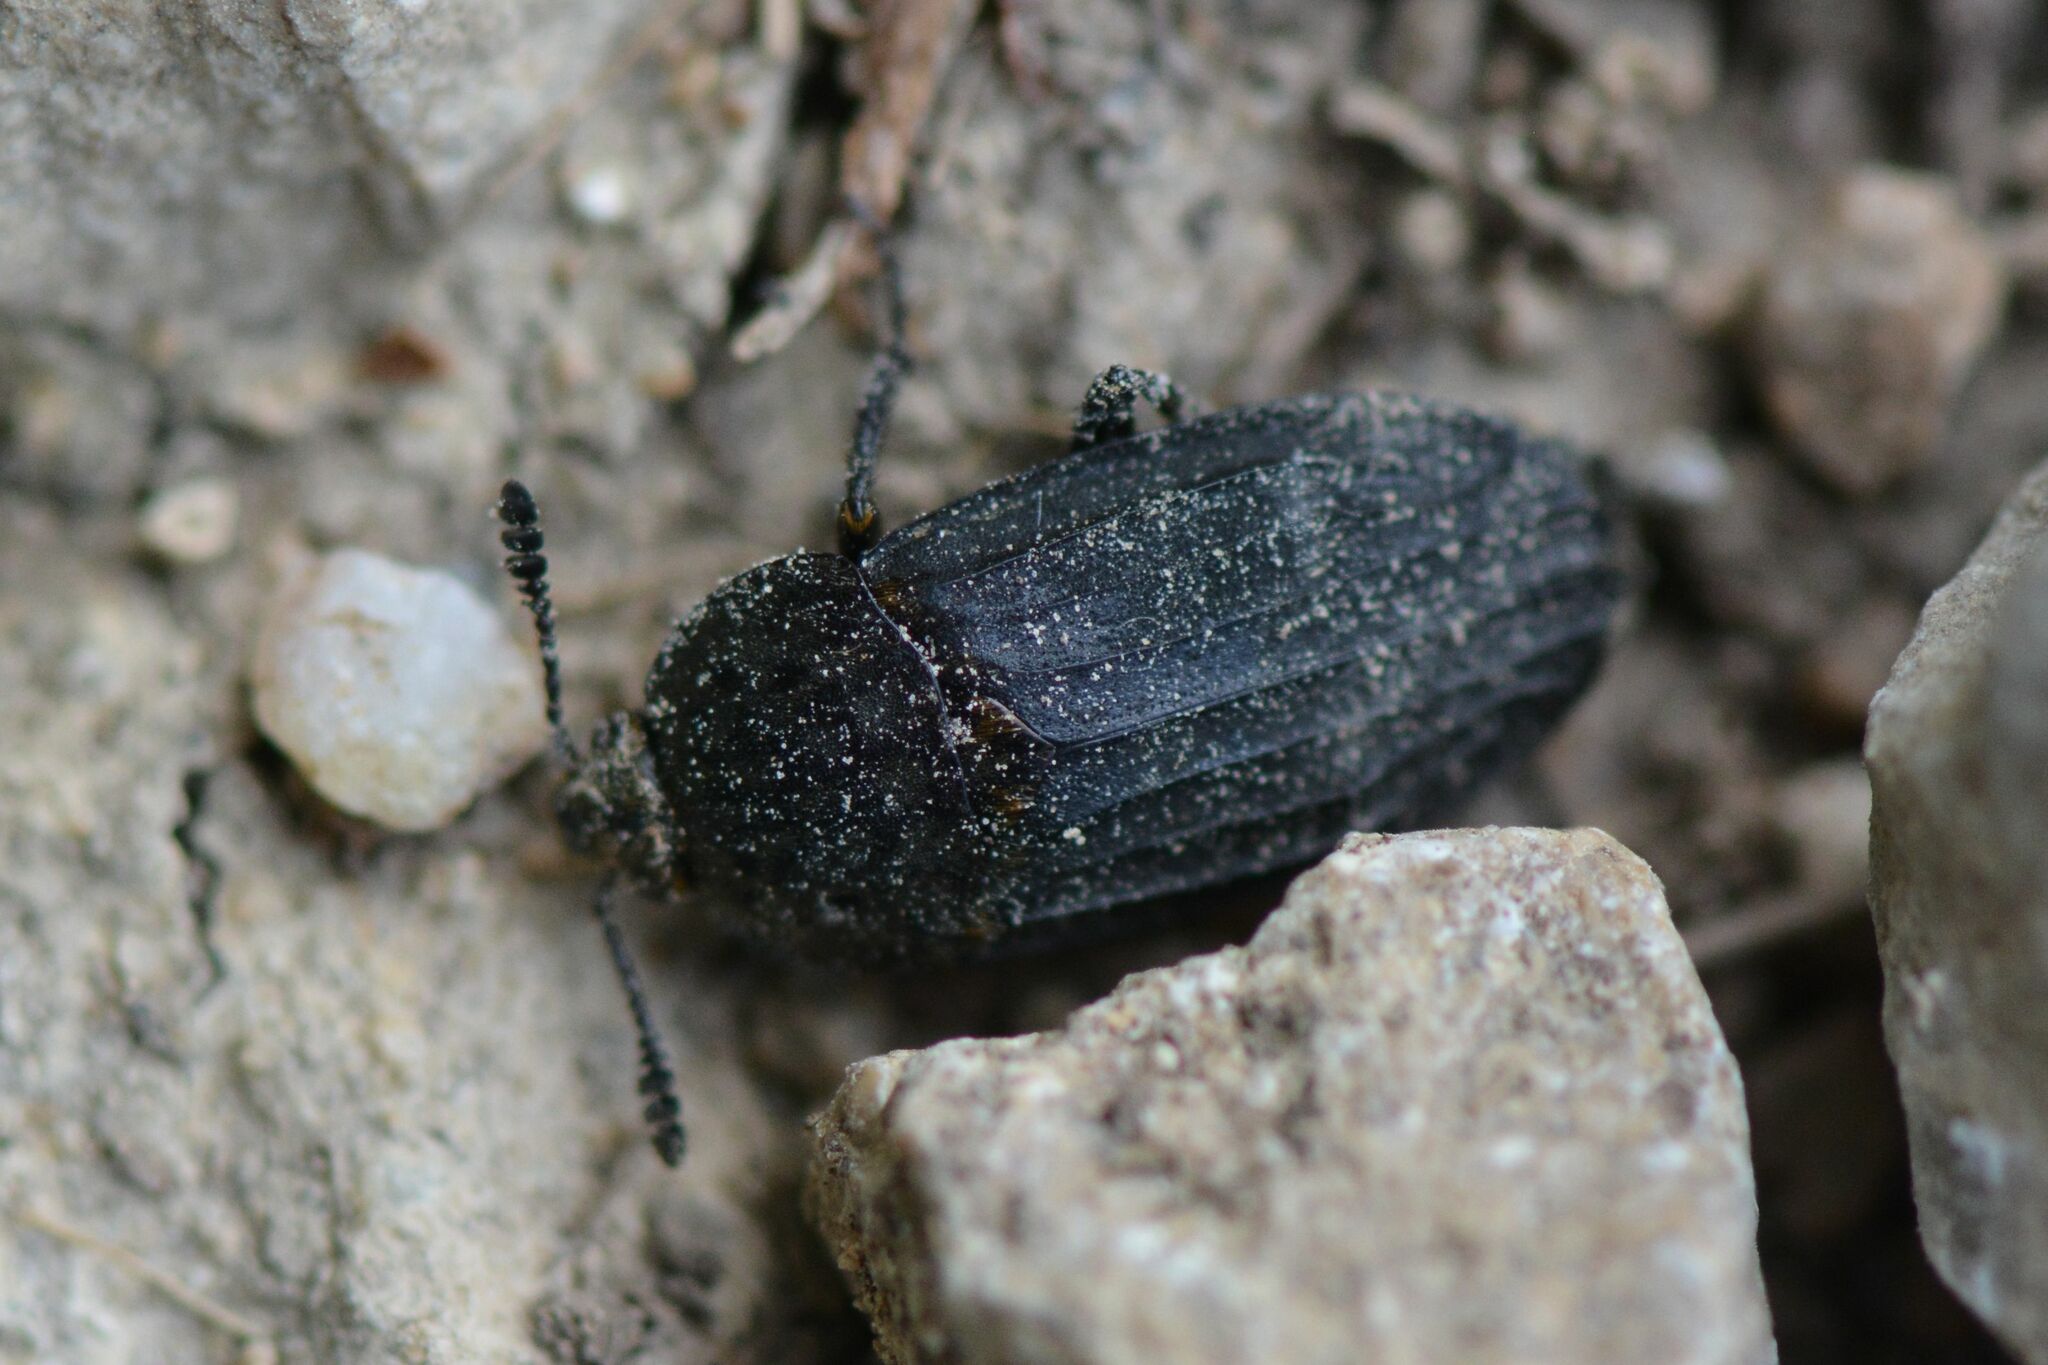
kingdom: Animalia
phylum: Arthropoda
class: Insecta
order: Coleoptera
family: Staphylinidae
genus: Thanatophilus
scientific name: Thanatophilus sinuatus
